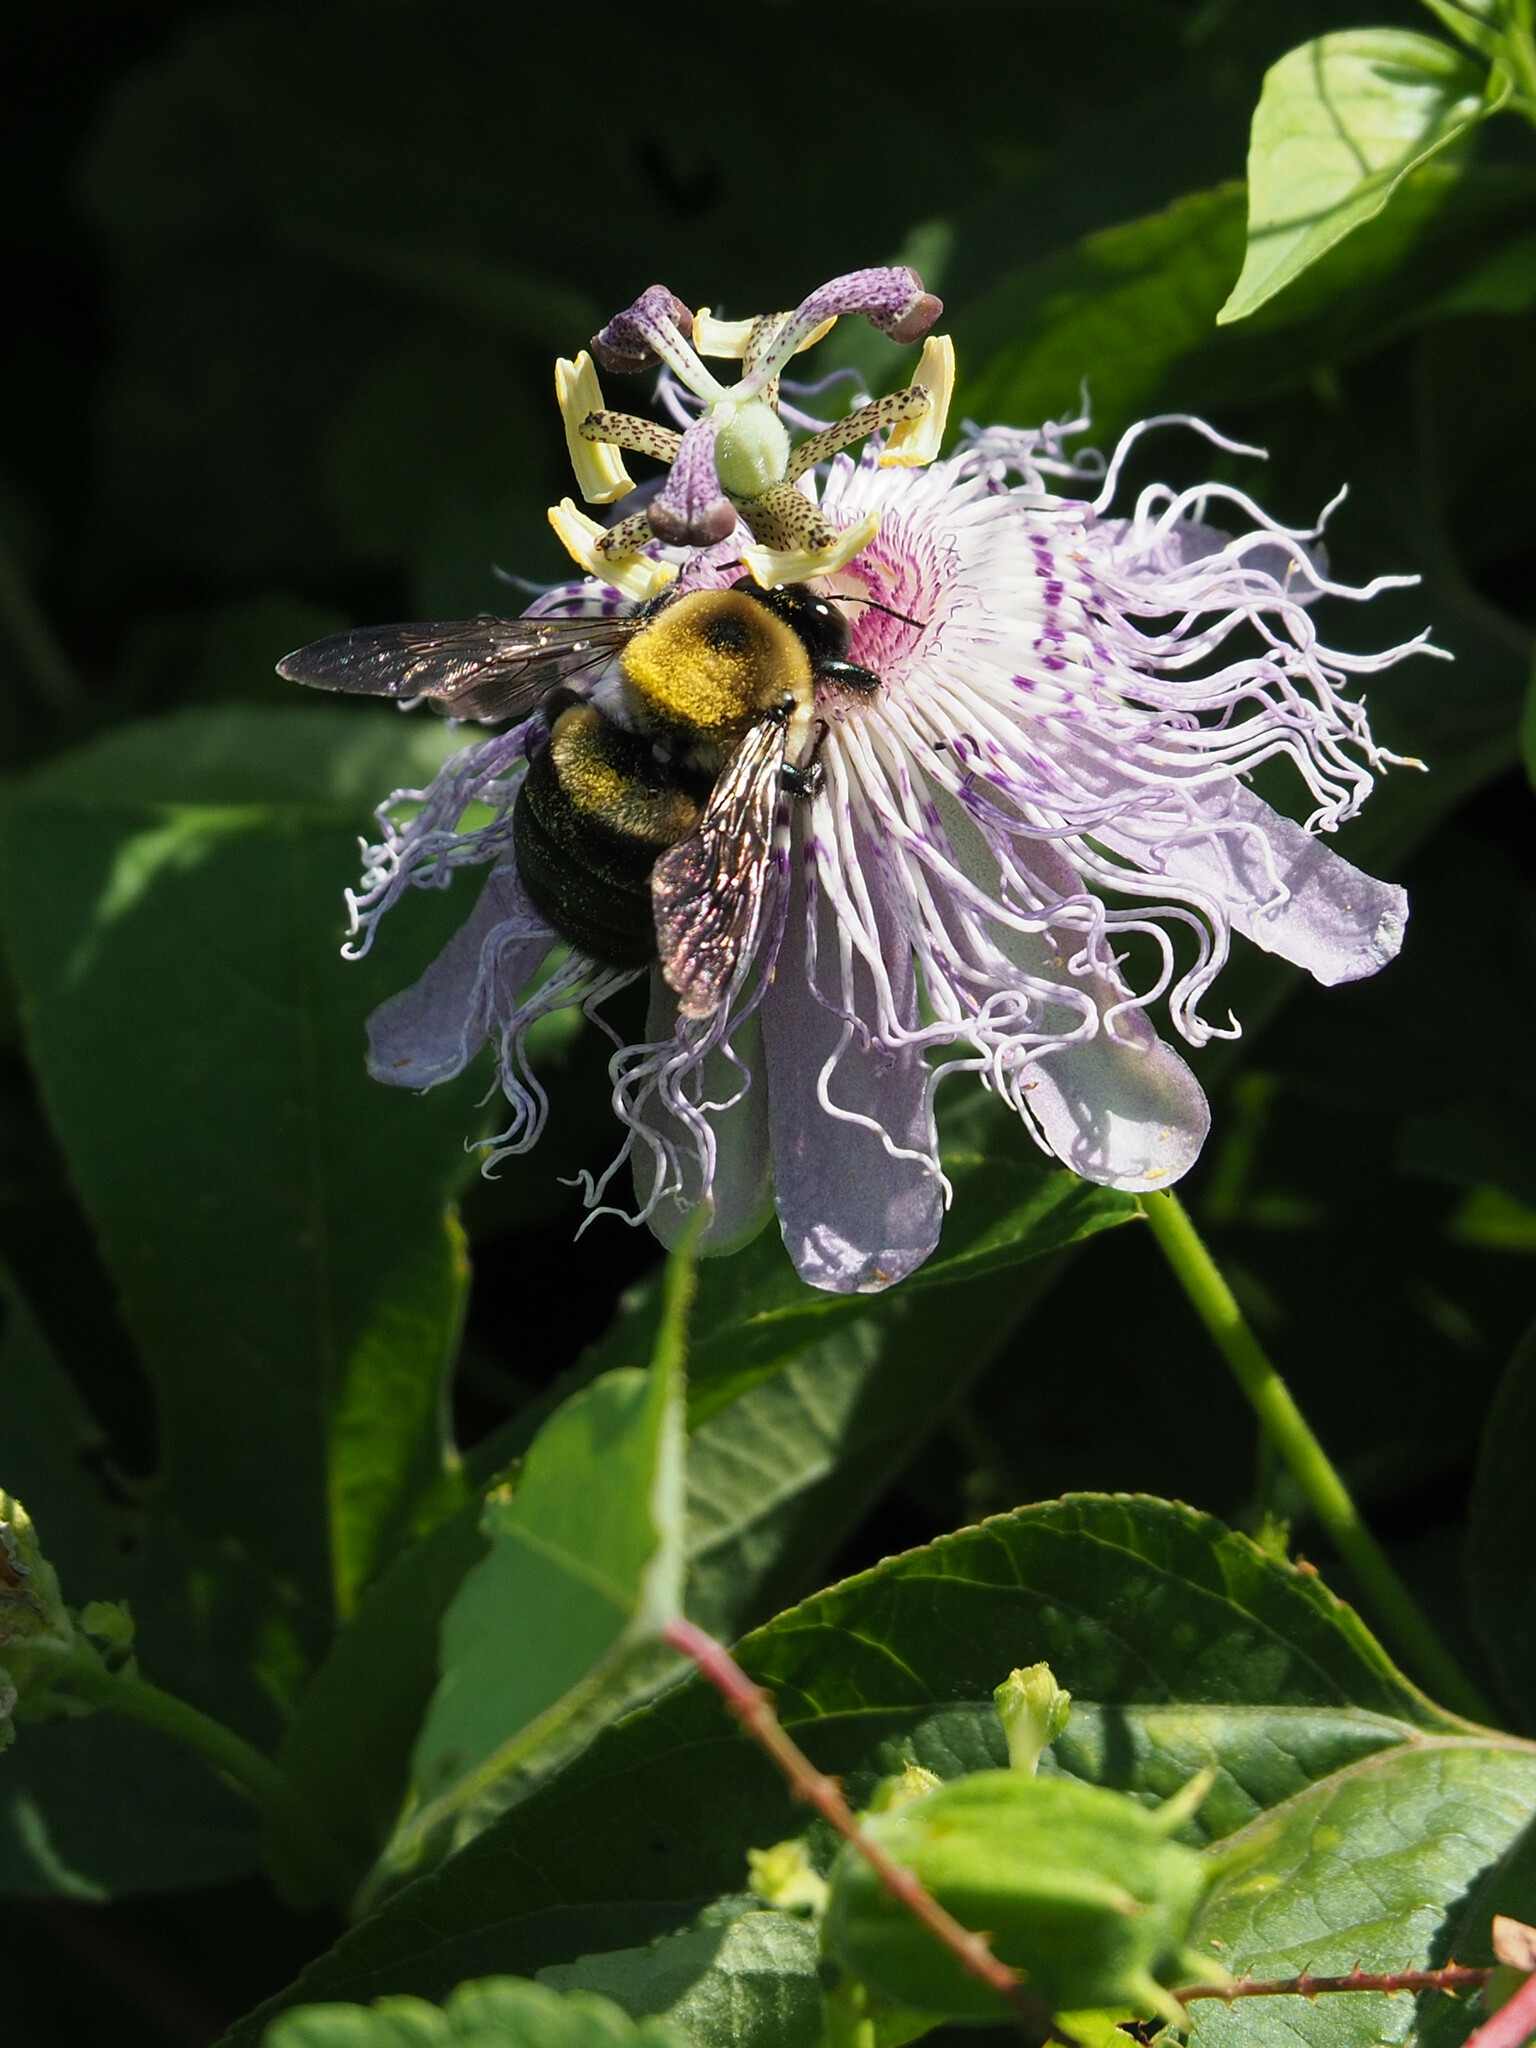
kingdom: Animalia
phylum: Arthropoda
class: Insecta
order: Hymenoptera
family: Apidae
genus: Xylocopa
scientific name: Xylocopa virginica
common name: Carpenter bee
